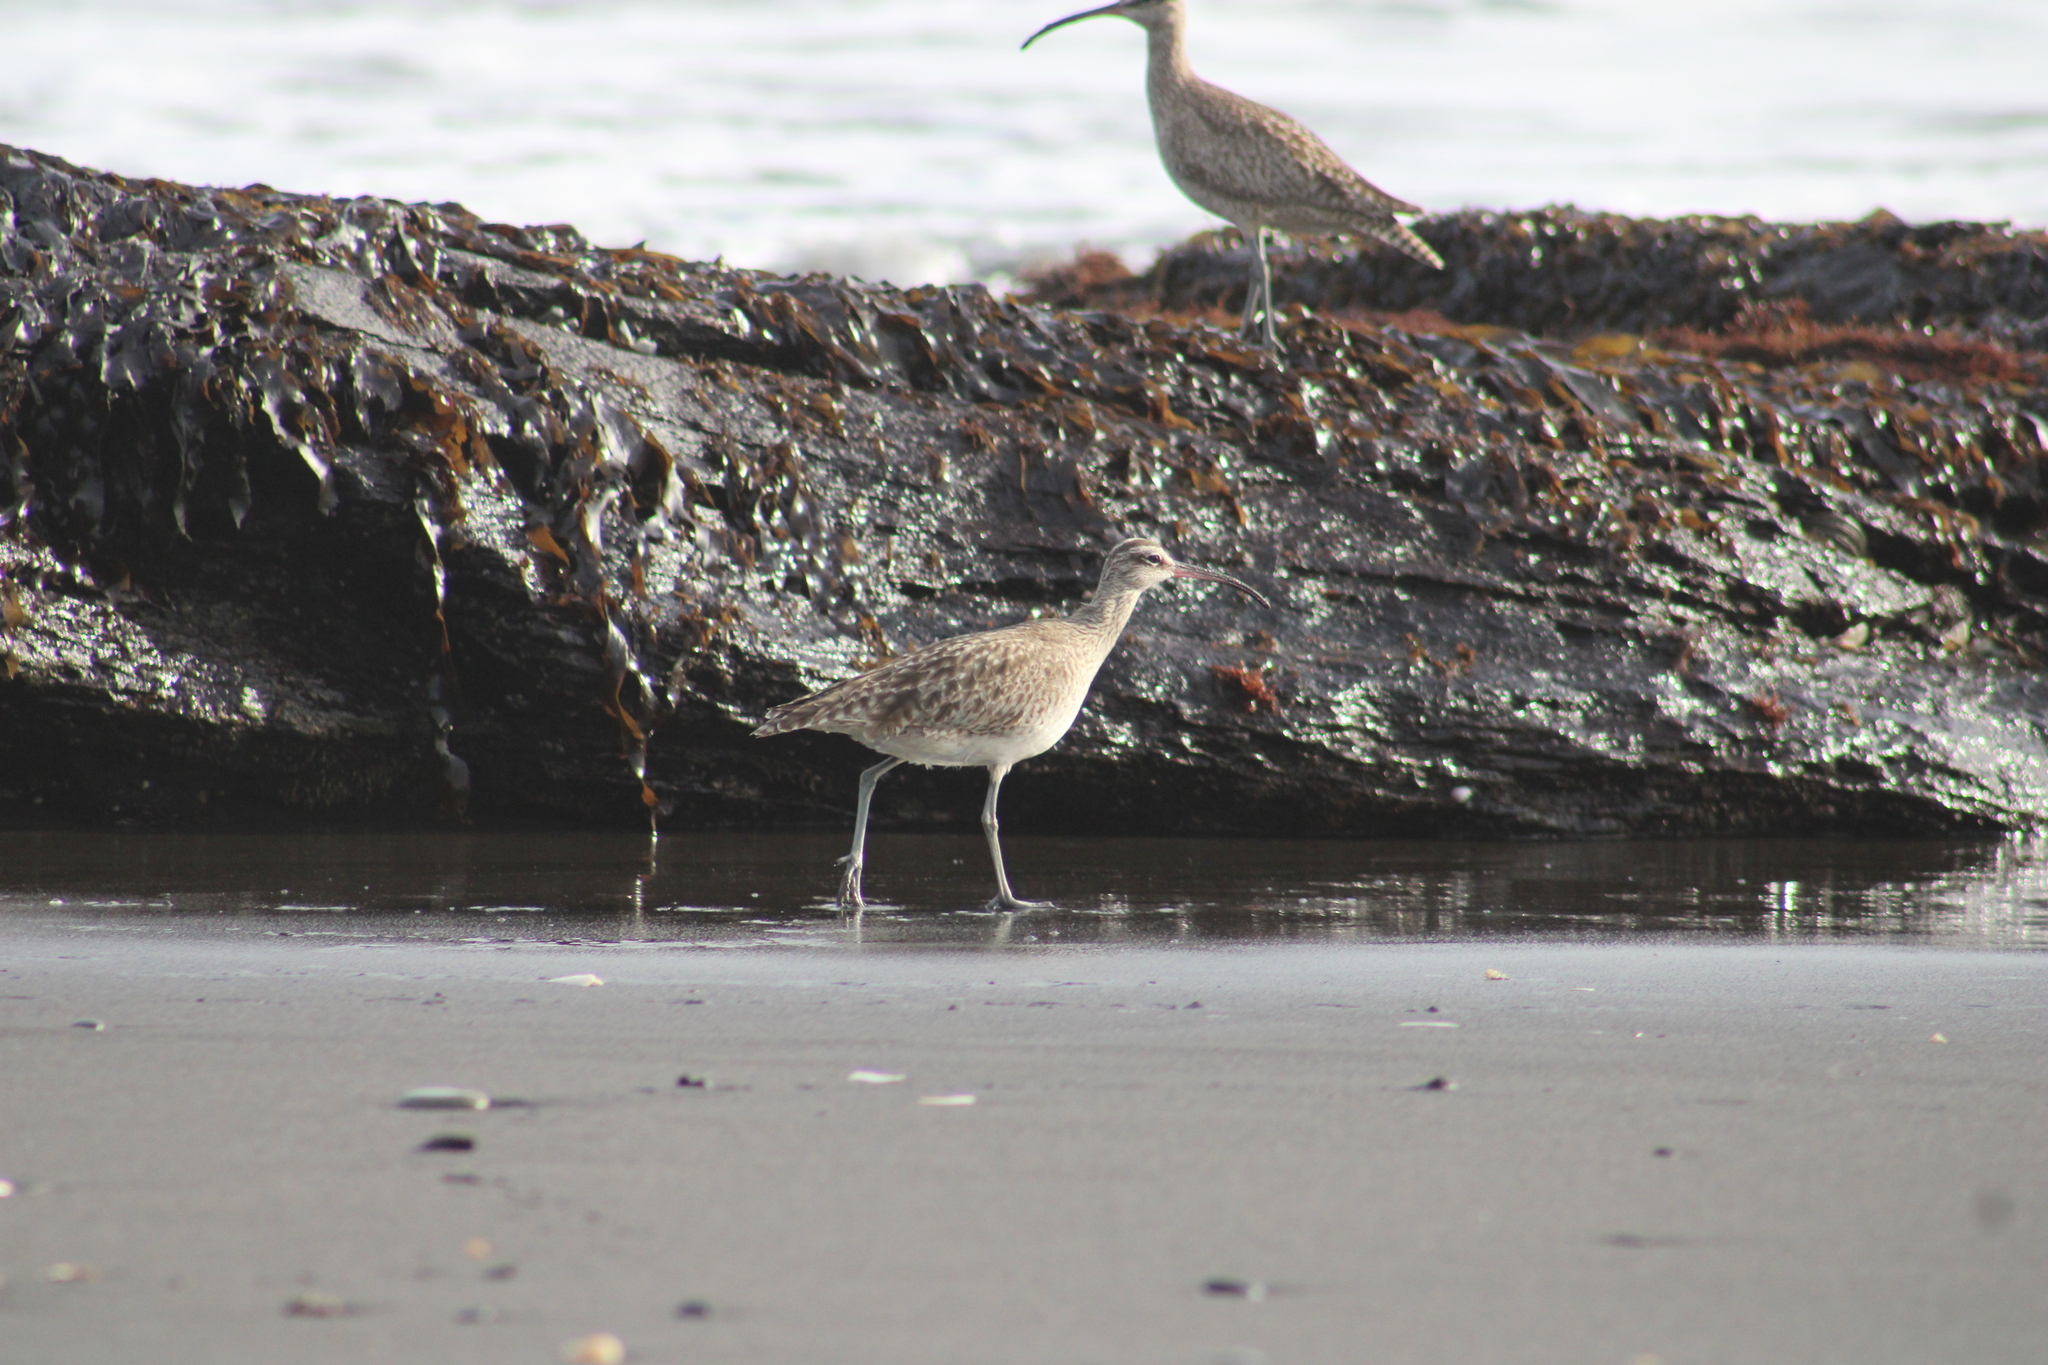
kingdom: Animalia
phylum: Chordata
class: Aves
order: Charadriiformes
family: Scolopacidae
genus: Numenius
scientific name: Numenius phaeopus
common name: Whimbrel
